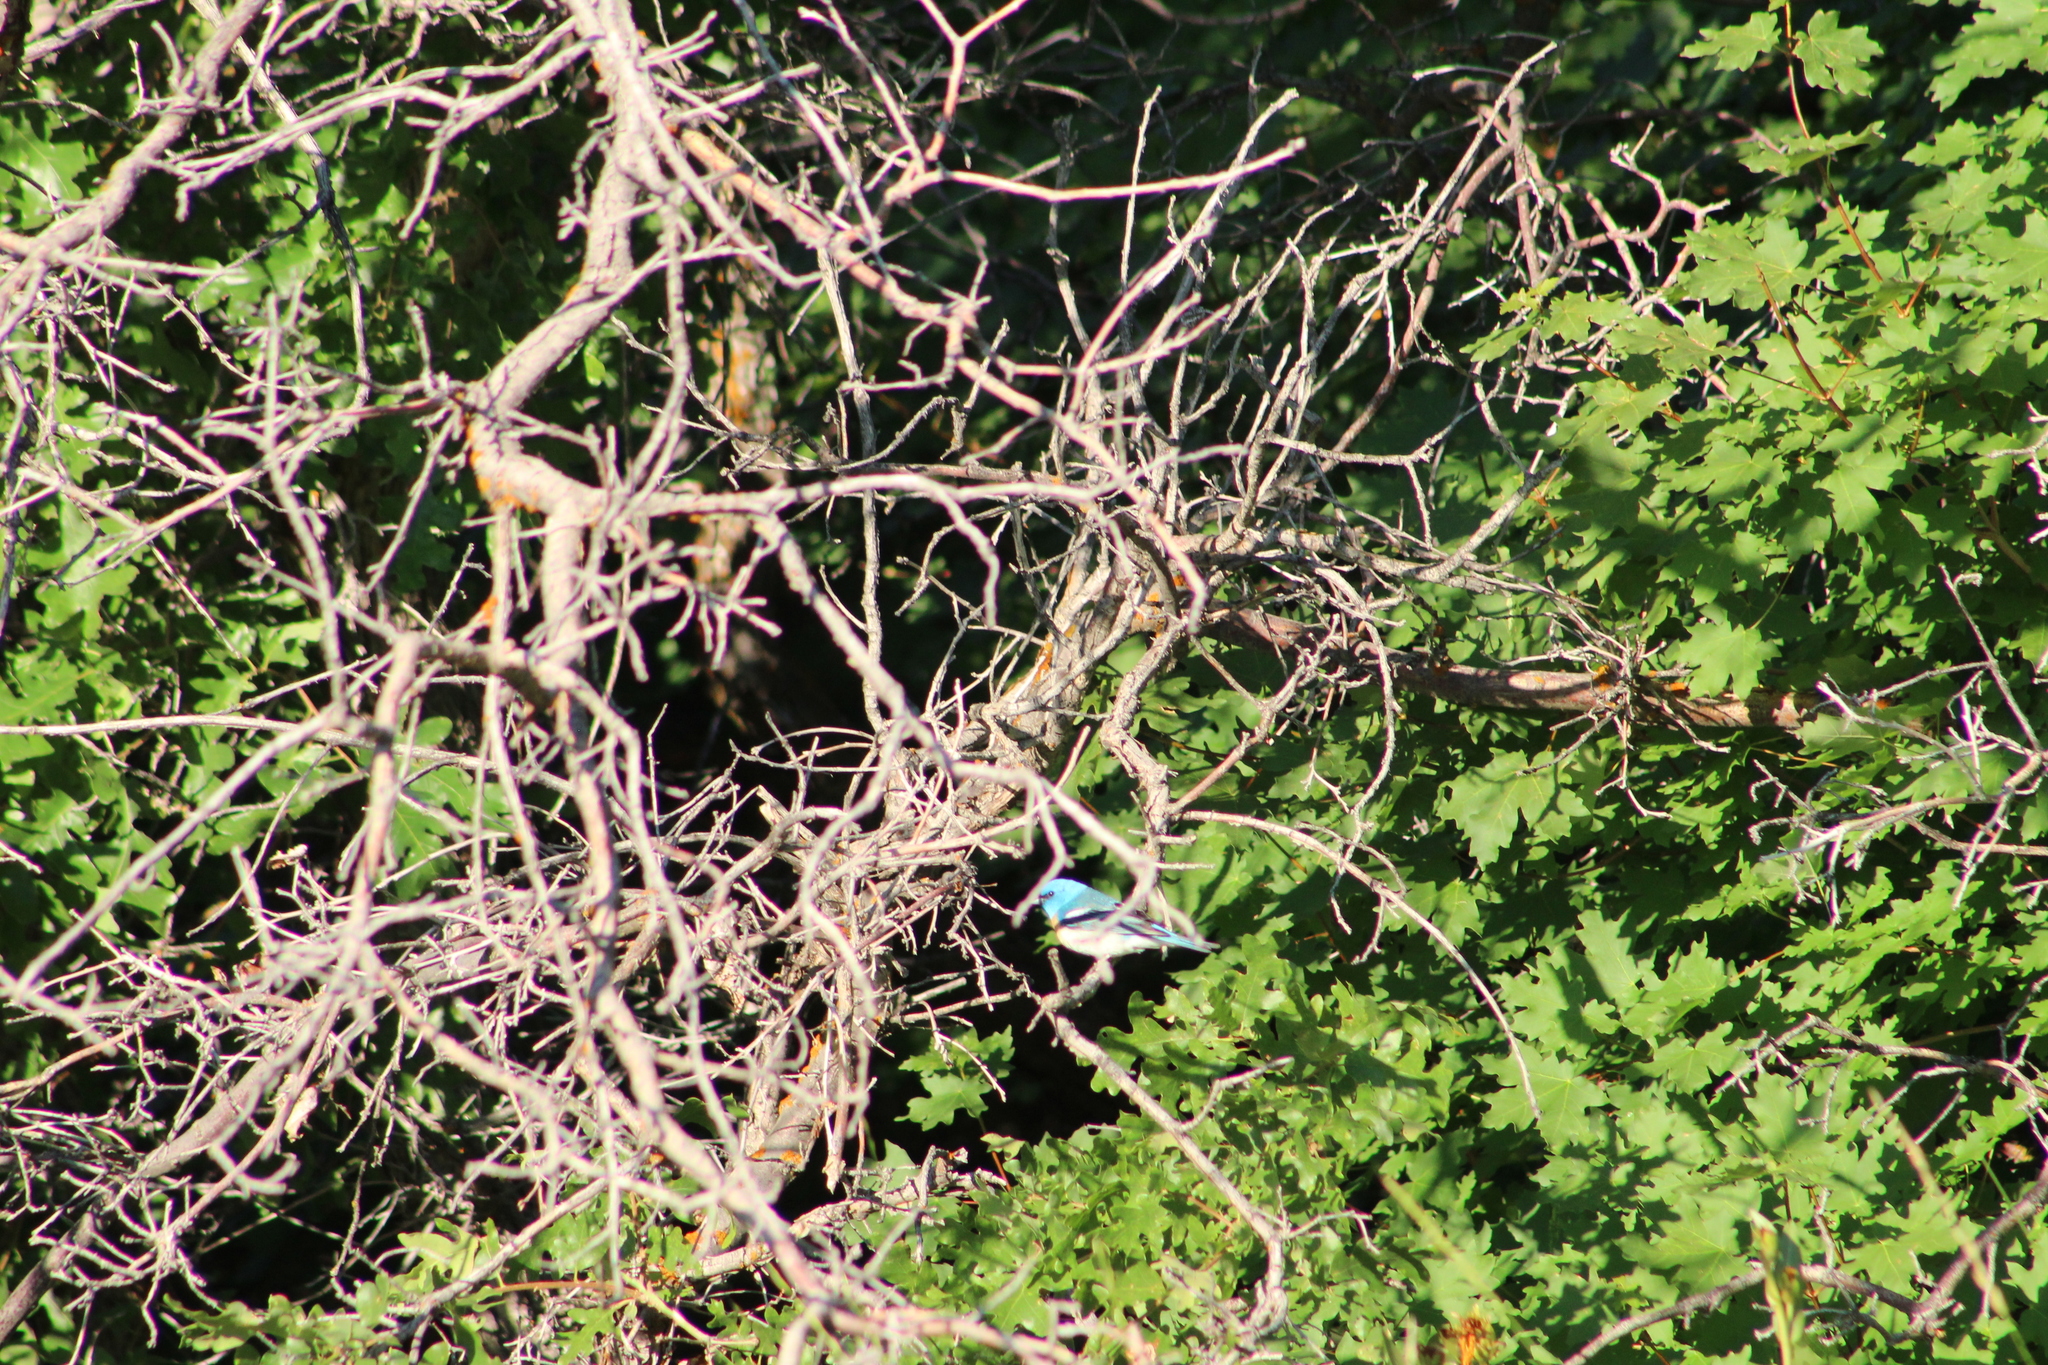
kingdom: Animalia
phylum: Chordata
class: Aves
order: Passeriformes
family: Cardinalidae
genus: Passerina
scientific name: Passerina amoena
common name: Lazuli bunting
